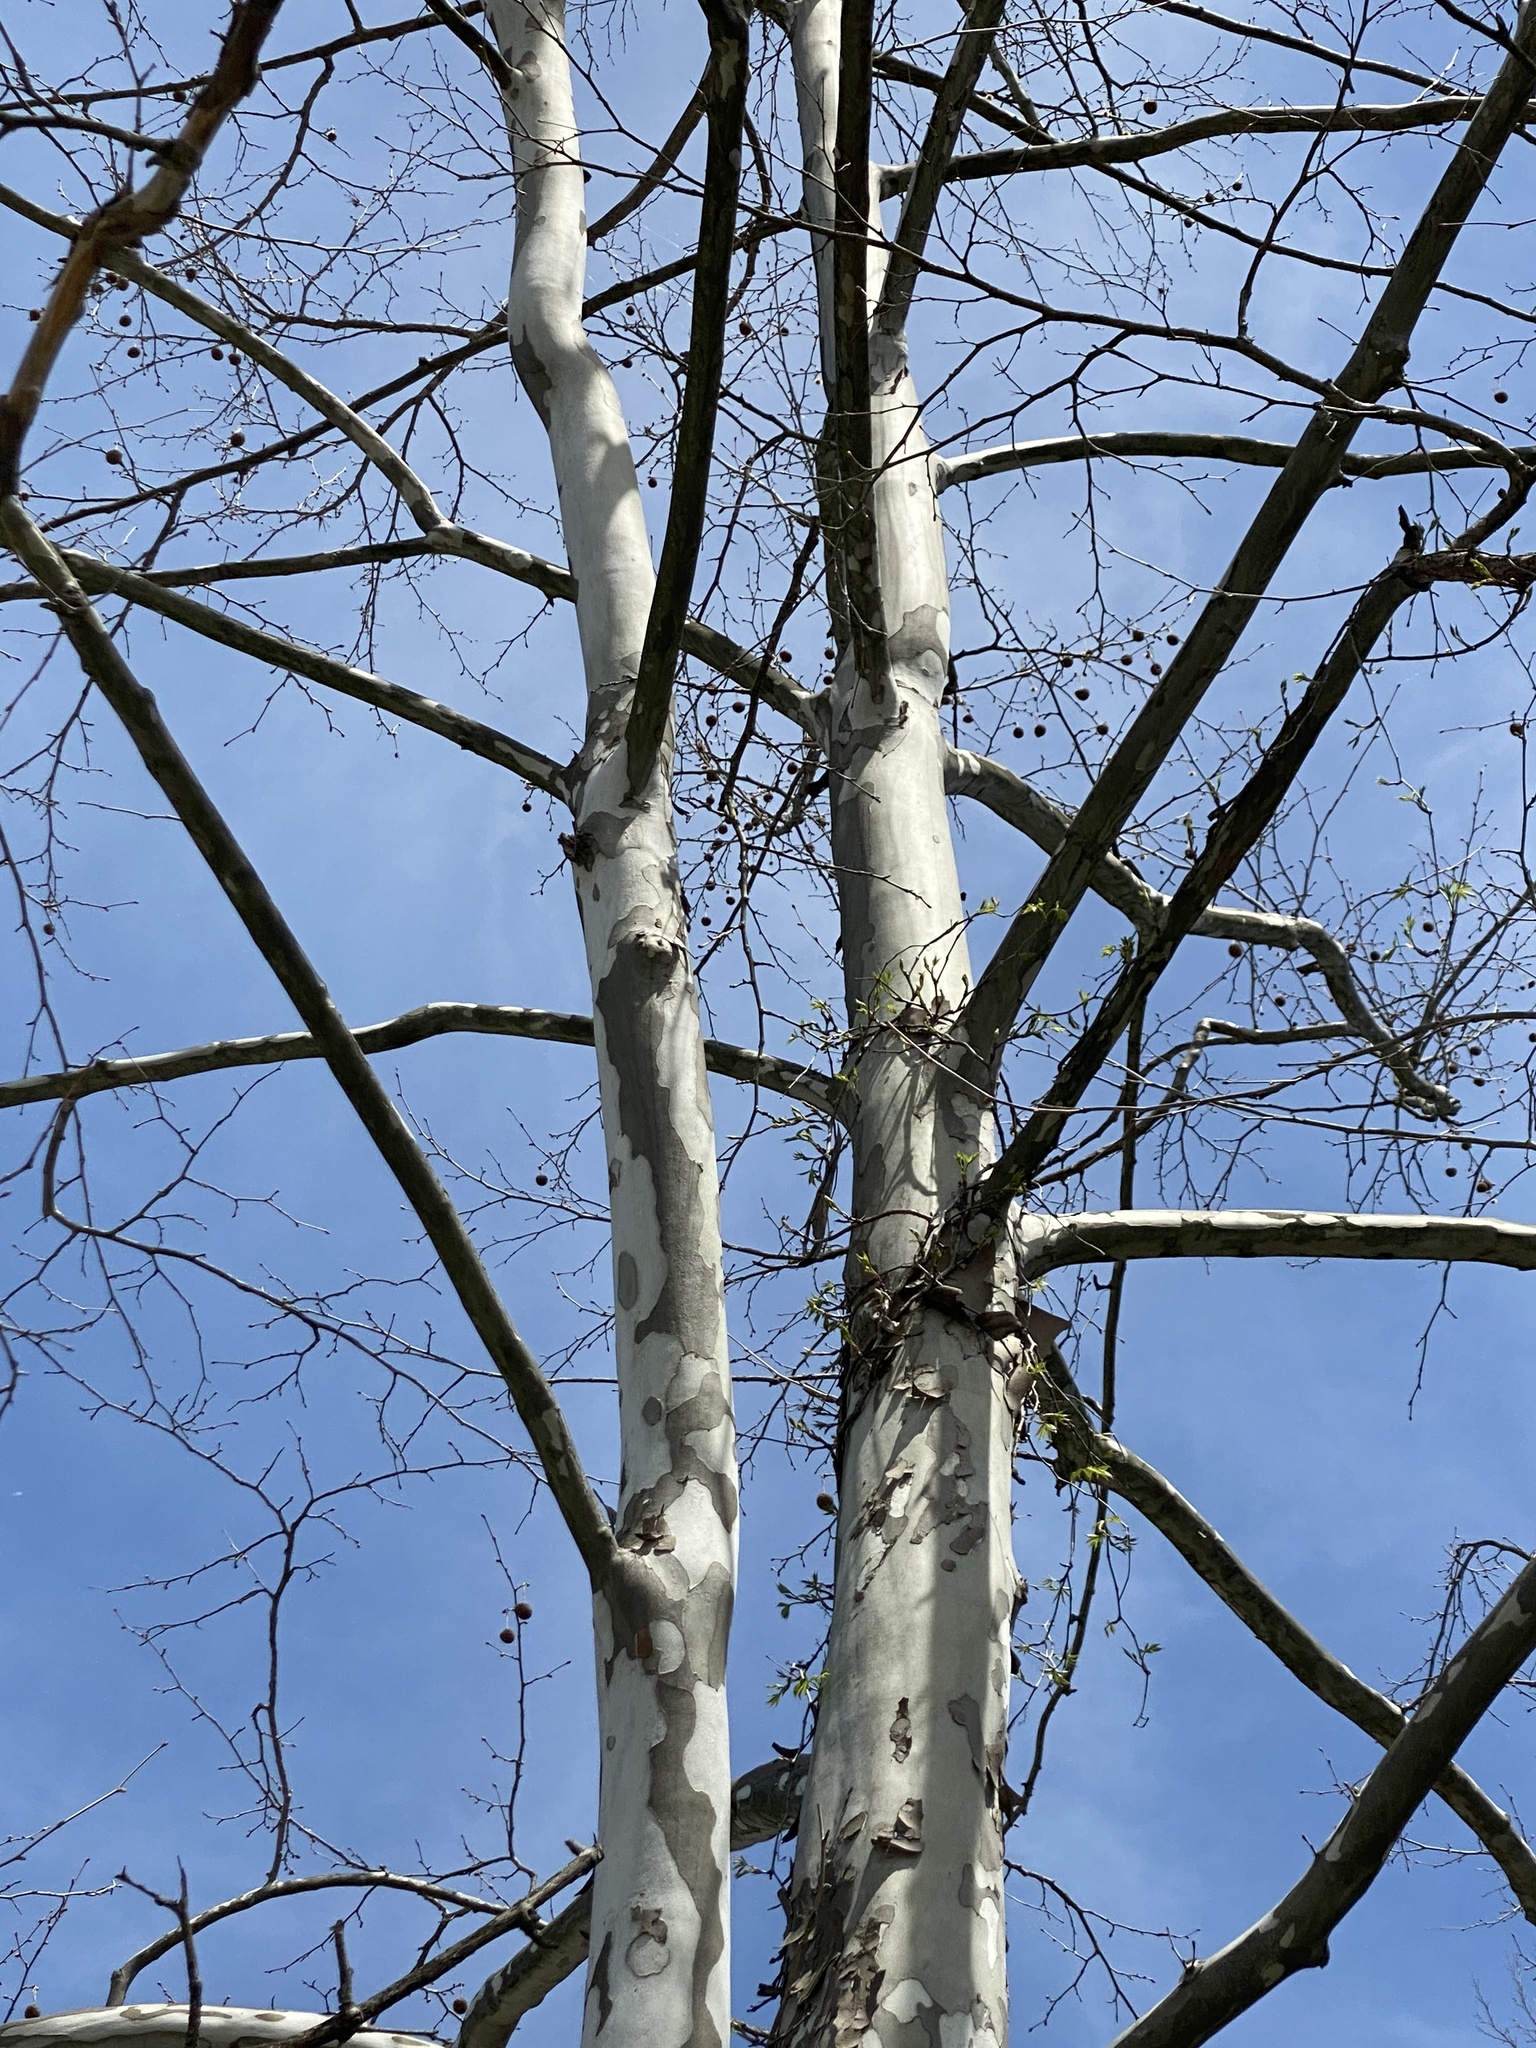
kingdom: Plantae
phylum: Tracheophyta
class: Magnoliopsida
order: Proteales
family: Platanaceae
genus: Platanus
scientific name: Platanus occidentalis
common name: American sycamore
